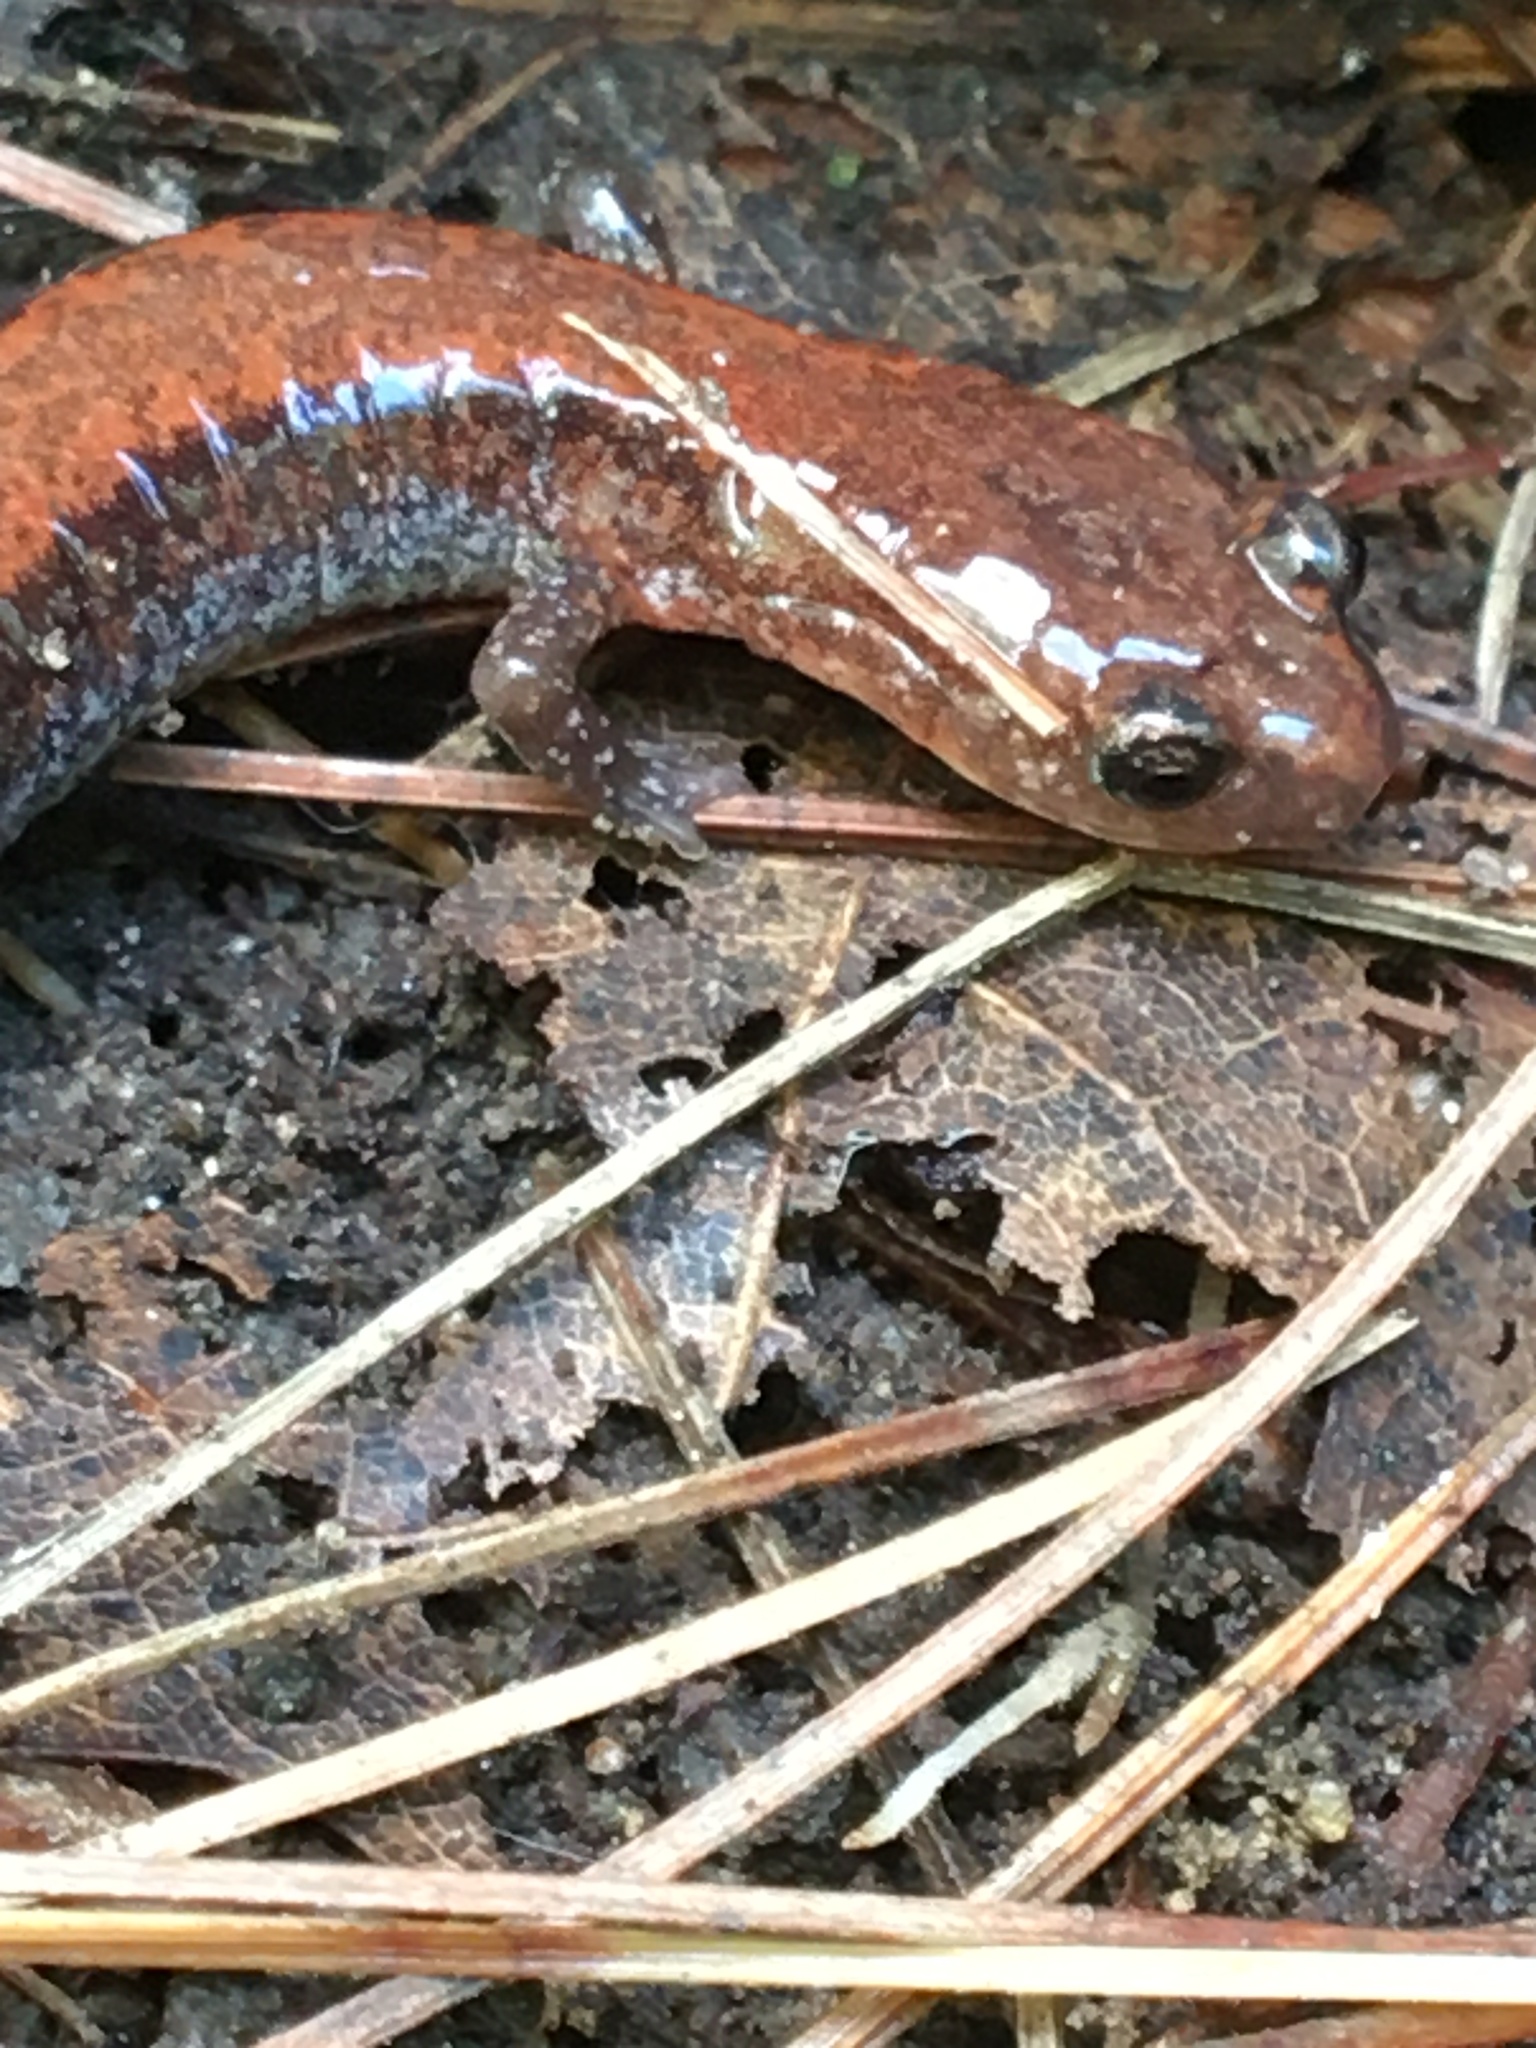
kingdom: Animalia
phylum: Chordata
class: Amphibia
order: Caudata
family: Plethodontidae
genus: Plethodon
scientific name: Plethodon cinereus
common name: Redback salamander
